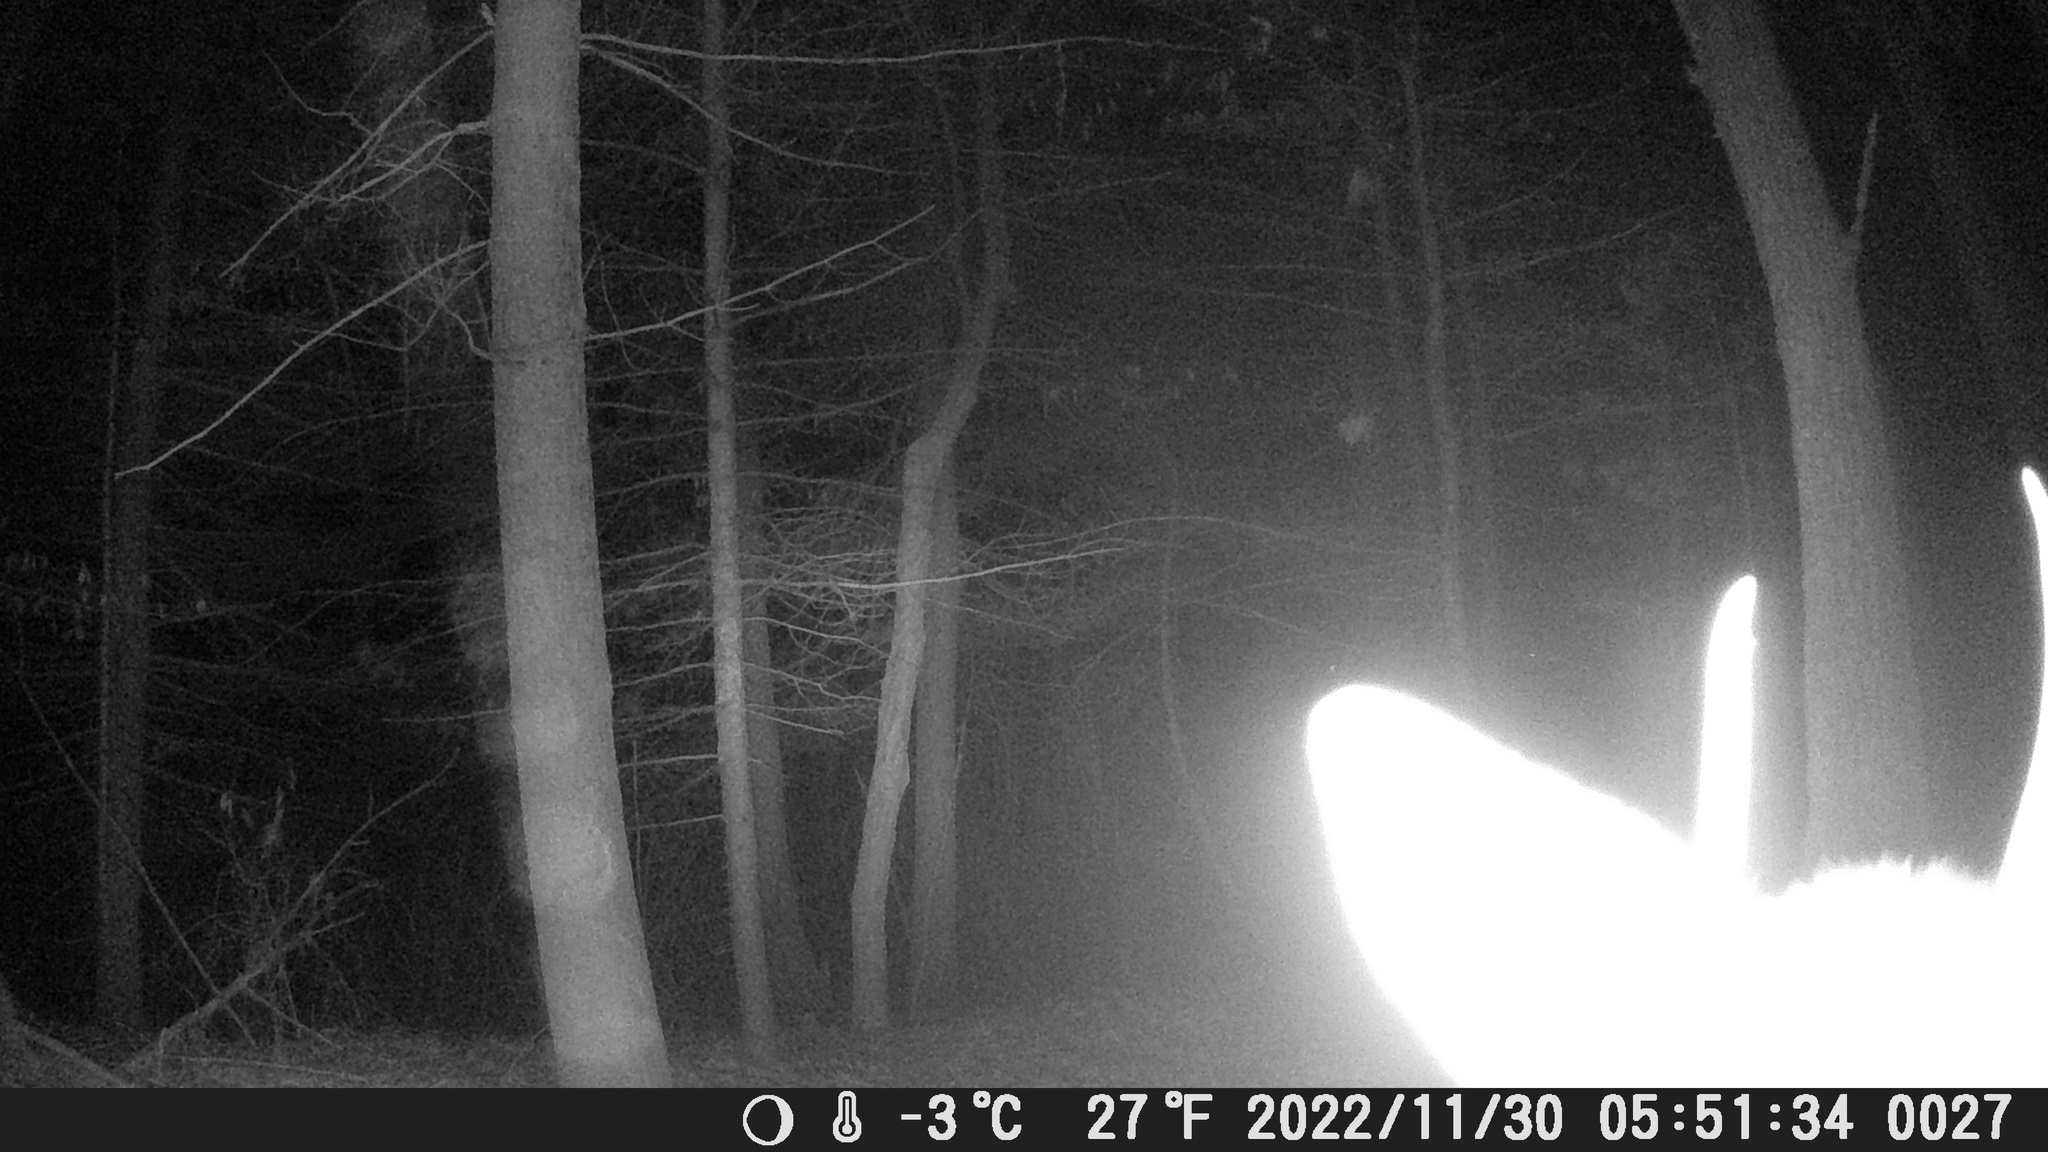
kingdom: Animalia
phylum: Chordata
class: Mammalia
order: Artiodactyla
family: Cervidae
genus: Odocoileus
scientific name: Odocoileus virginianus
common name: White-tailed deer
